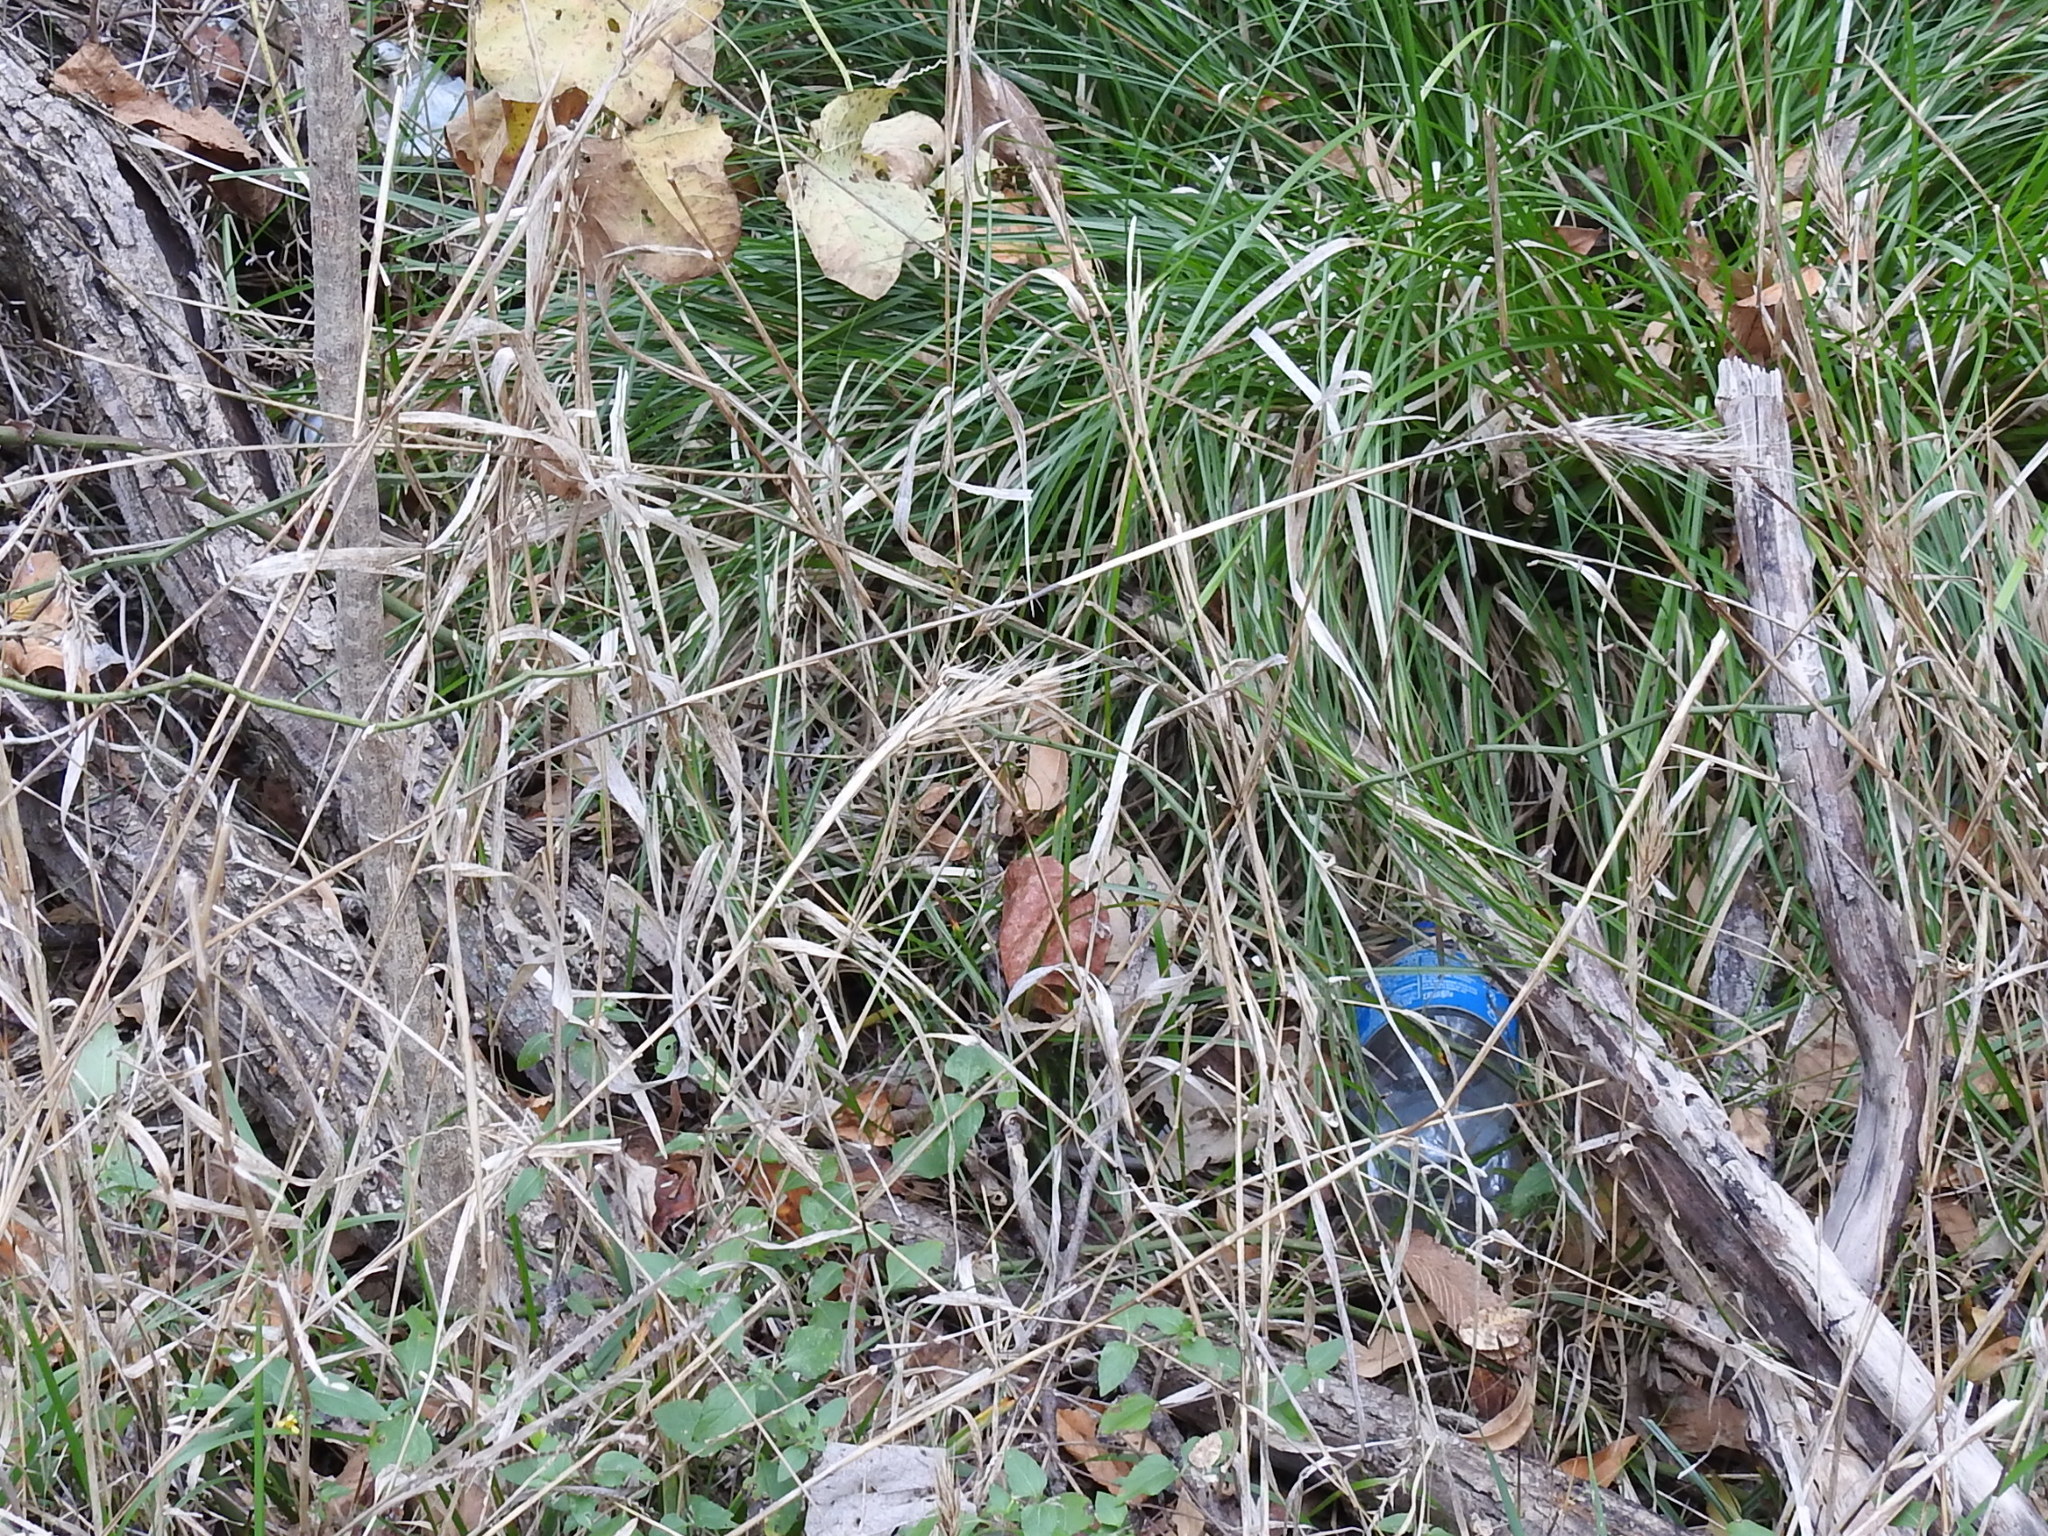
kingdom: Plantae
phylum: Tracheophyta
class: Liliopsida
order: Poales
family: Poaceae
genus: Elymus
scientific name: Elymus virginicus
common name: Common eastern wildrye
